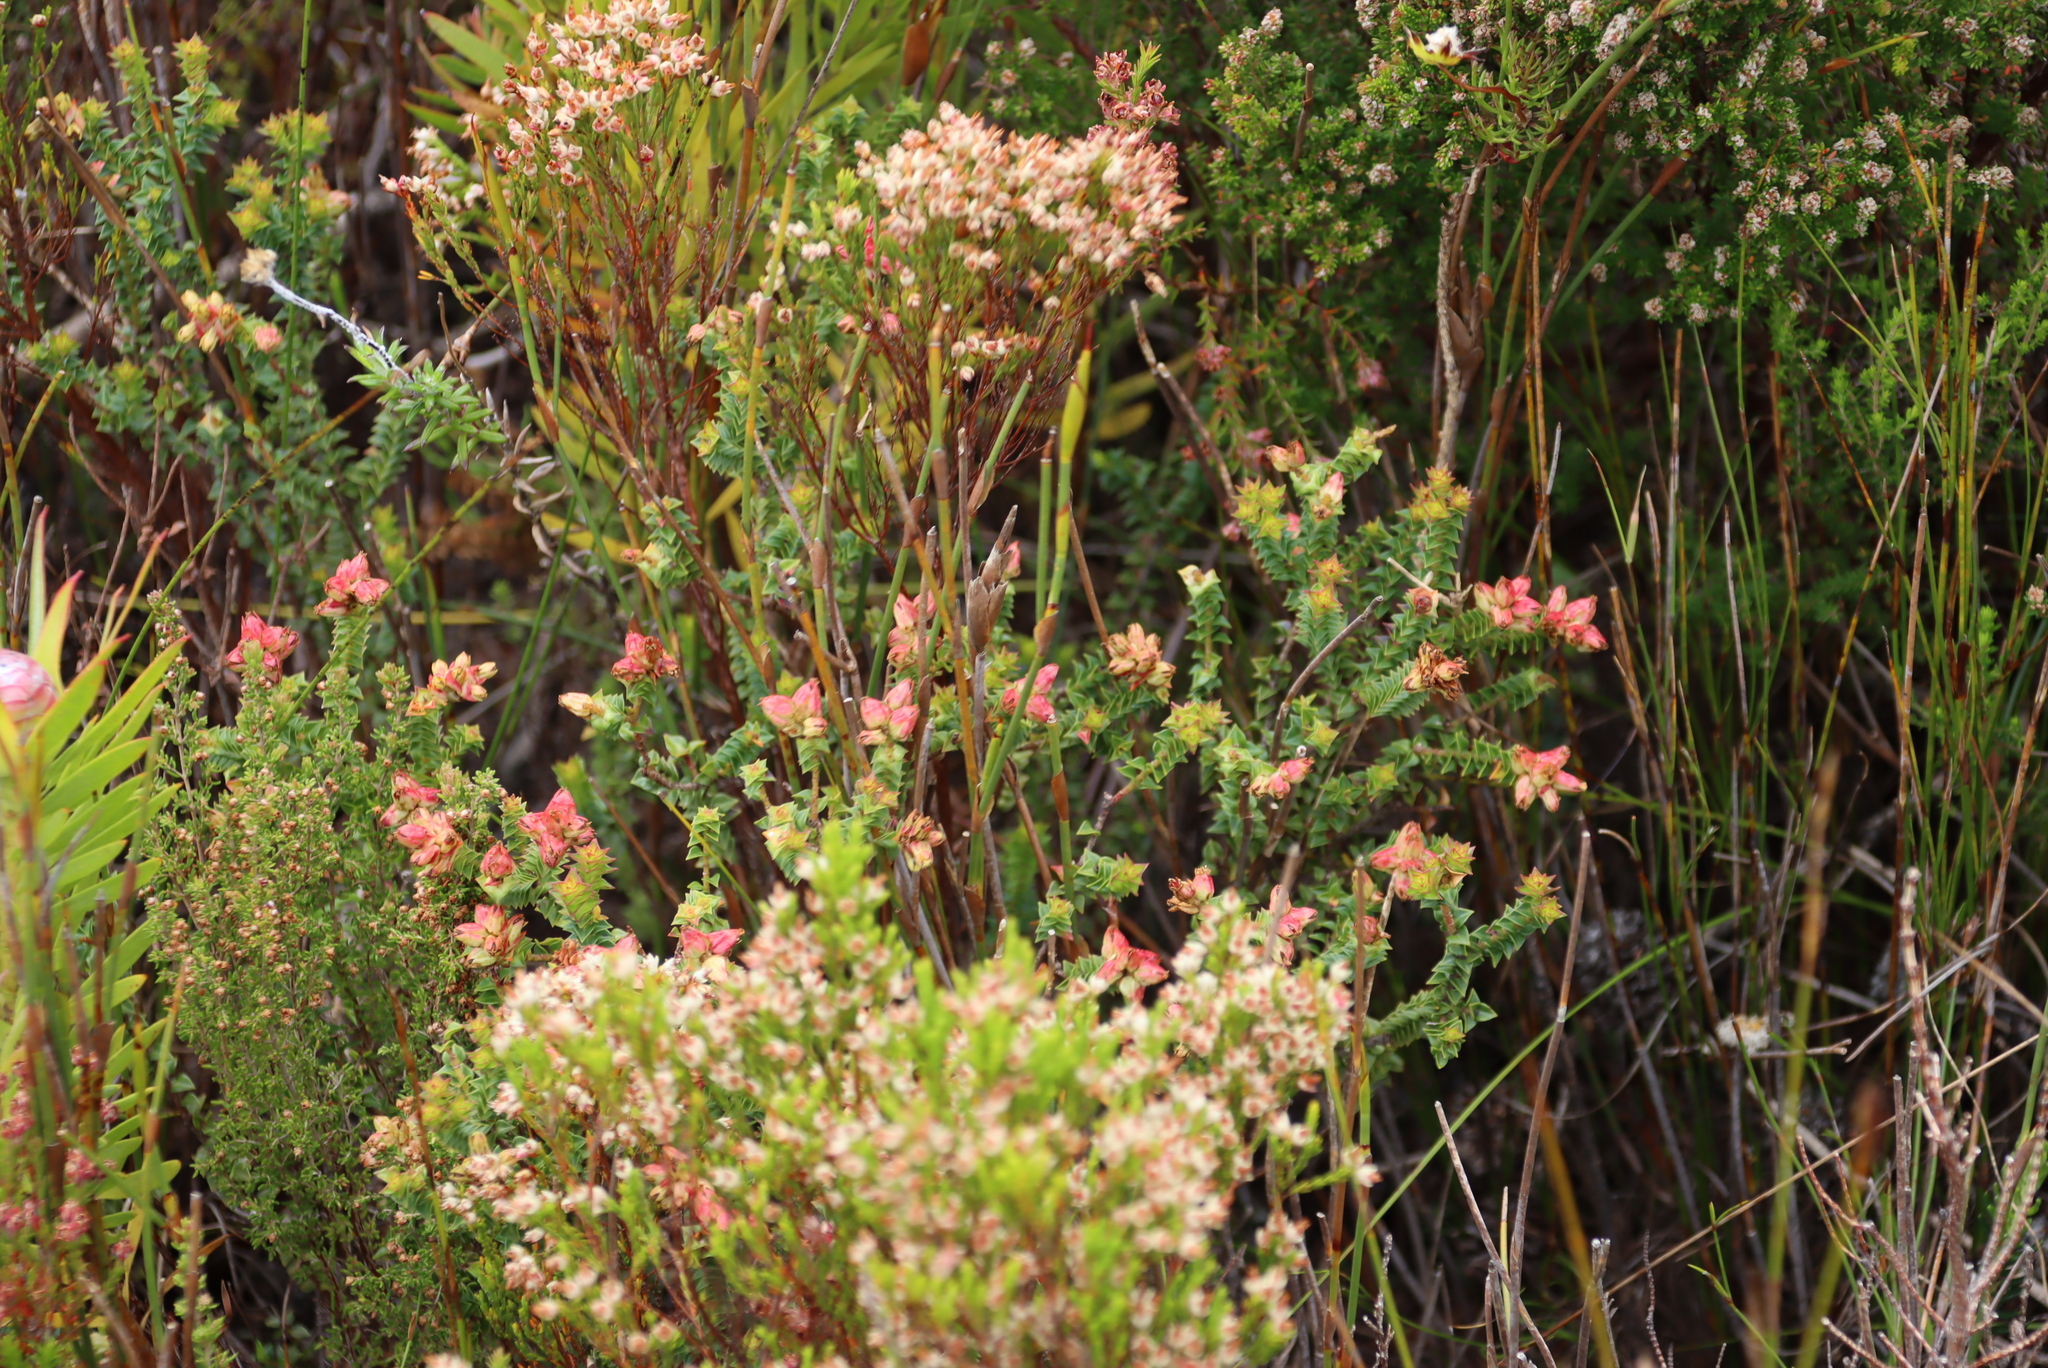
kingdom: Plantae
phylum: Tracheophyta
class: Magnoliopsida
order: Myrtales
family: Penaeaceae
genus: Penaea
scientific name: Penaea mucronata
